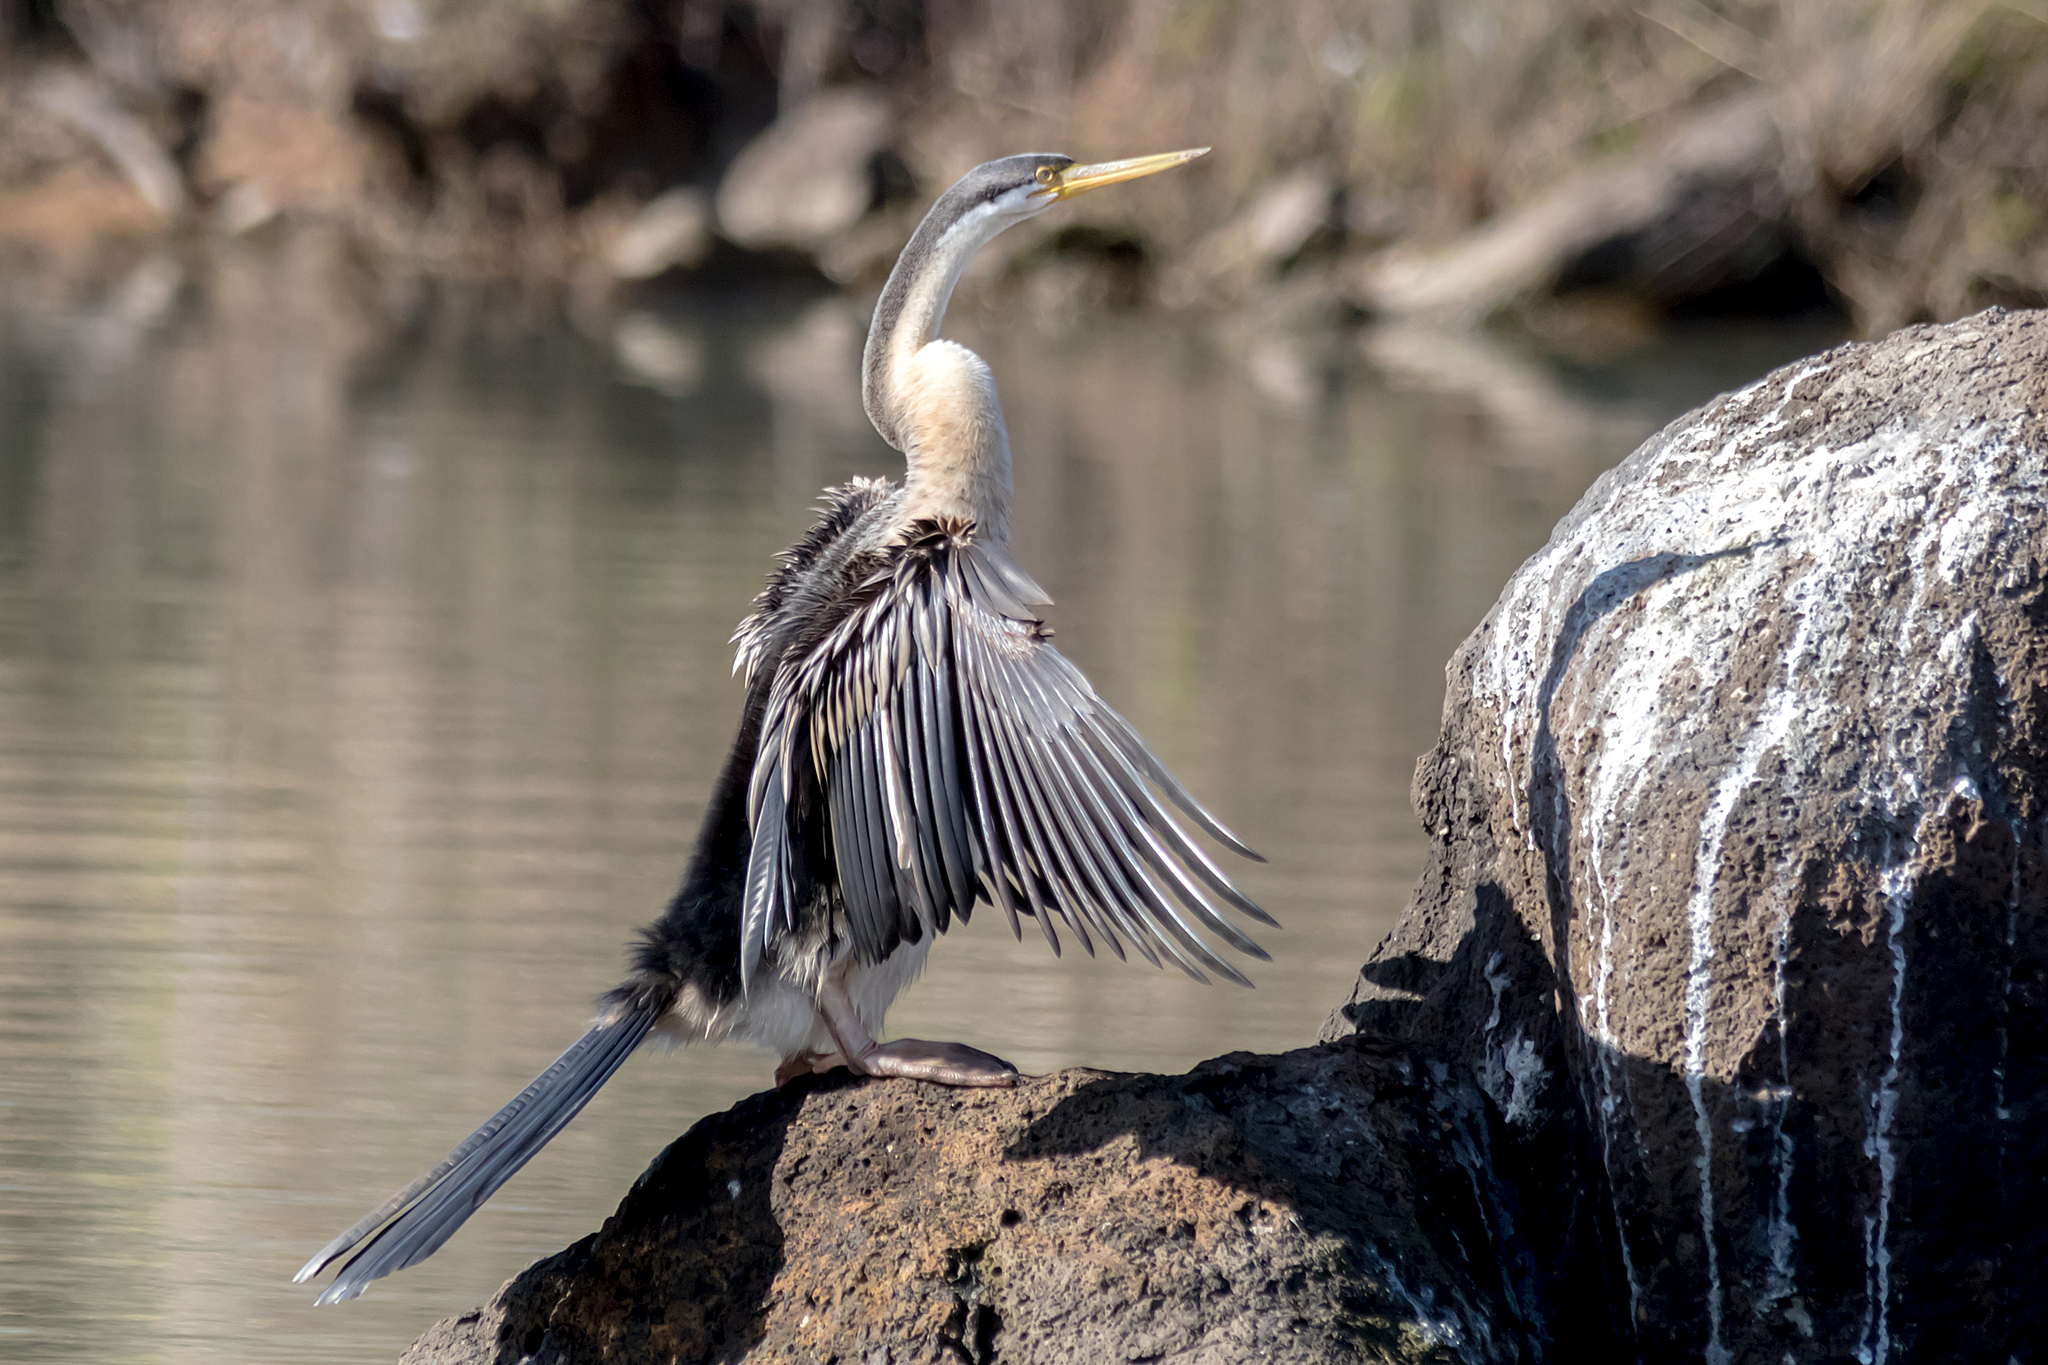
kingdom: Animalia
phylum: Chordata
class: Aves
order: Suliformes
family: Anhingidae
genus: Anhinga
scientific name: Anhinga novaehollandiae
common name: Australasian darter
